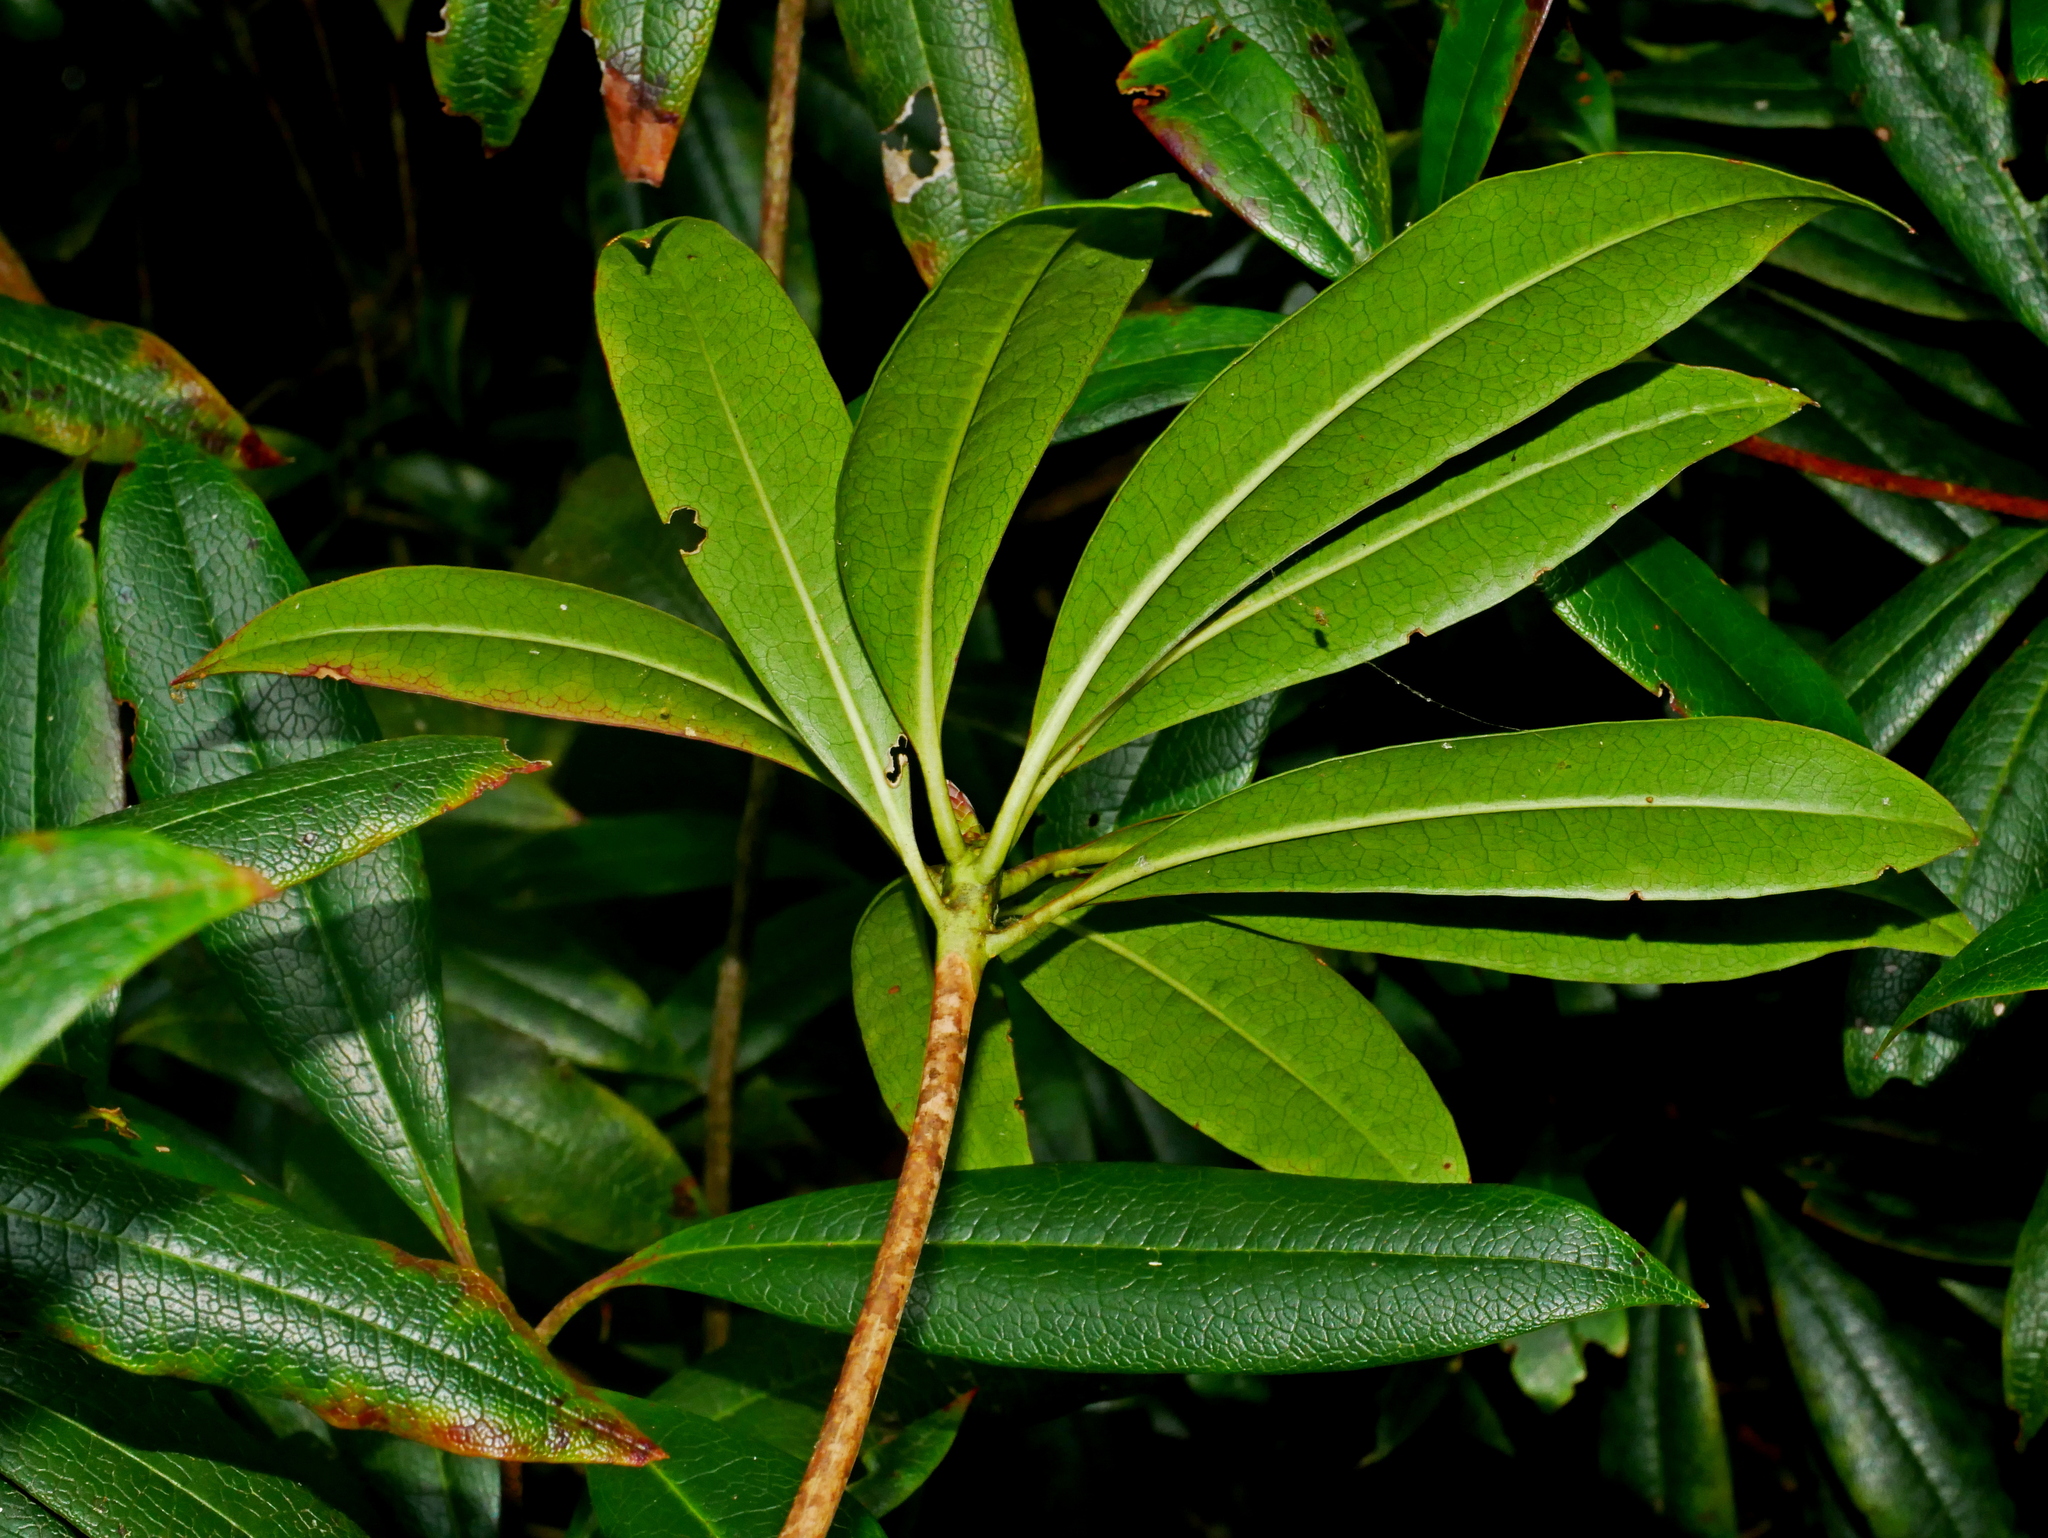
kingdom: Plantae
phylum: Tracheophyta
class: Magnoliopsida
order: Ericales
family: Ericaceae
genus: Rhododendron
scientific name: Rhododendron latoucheae
